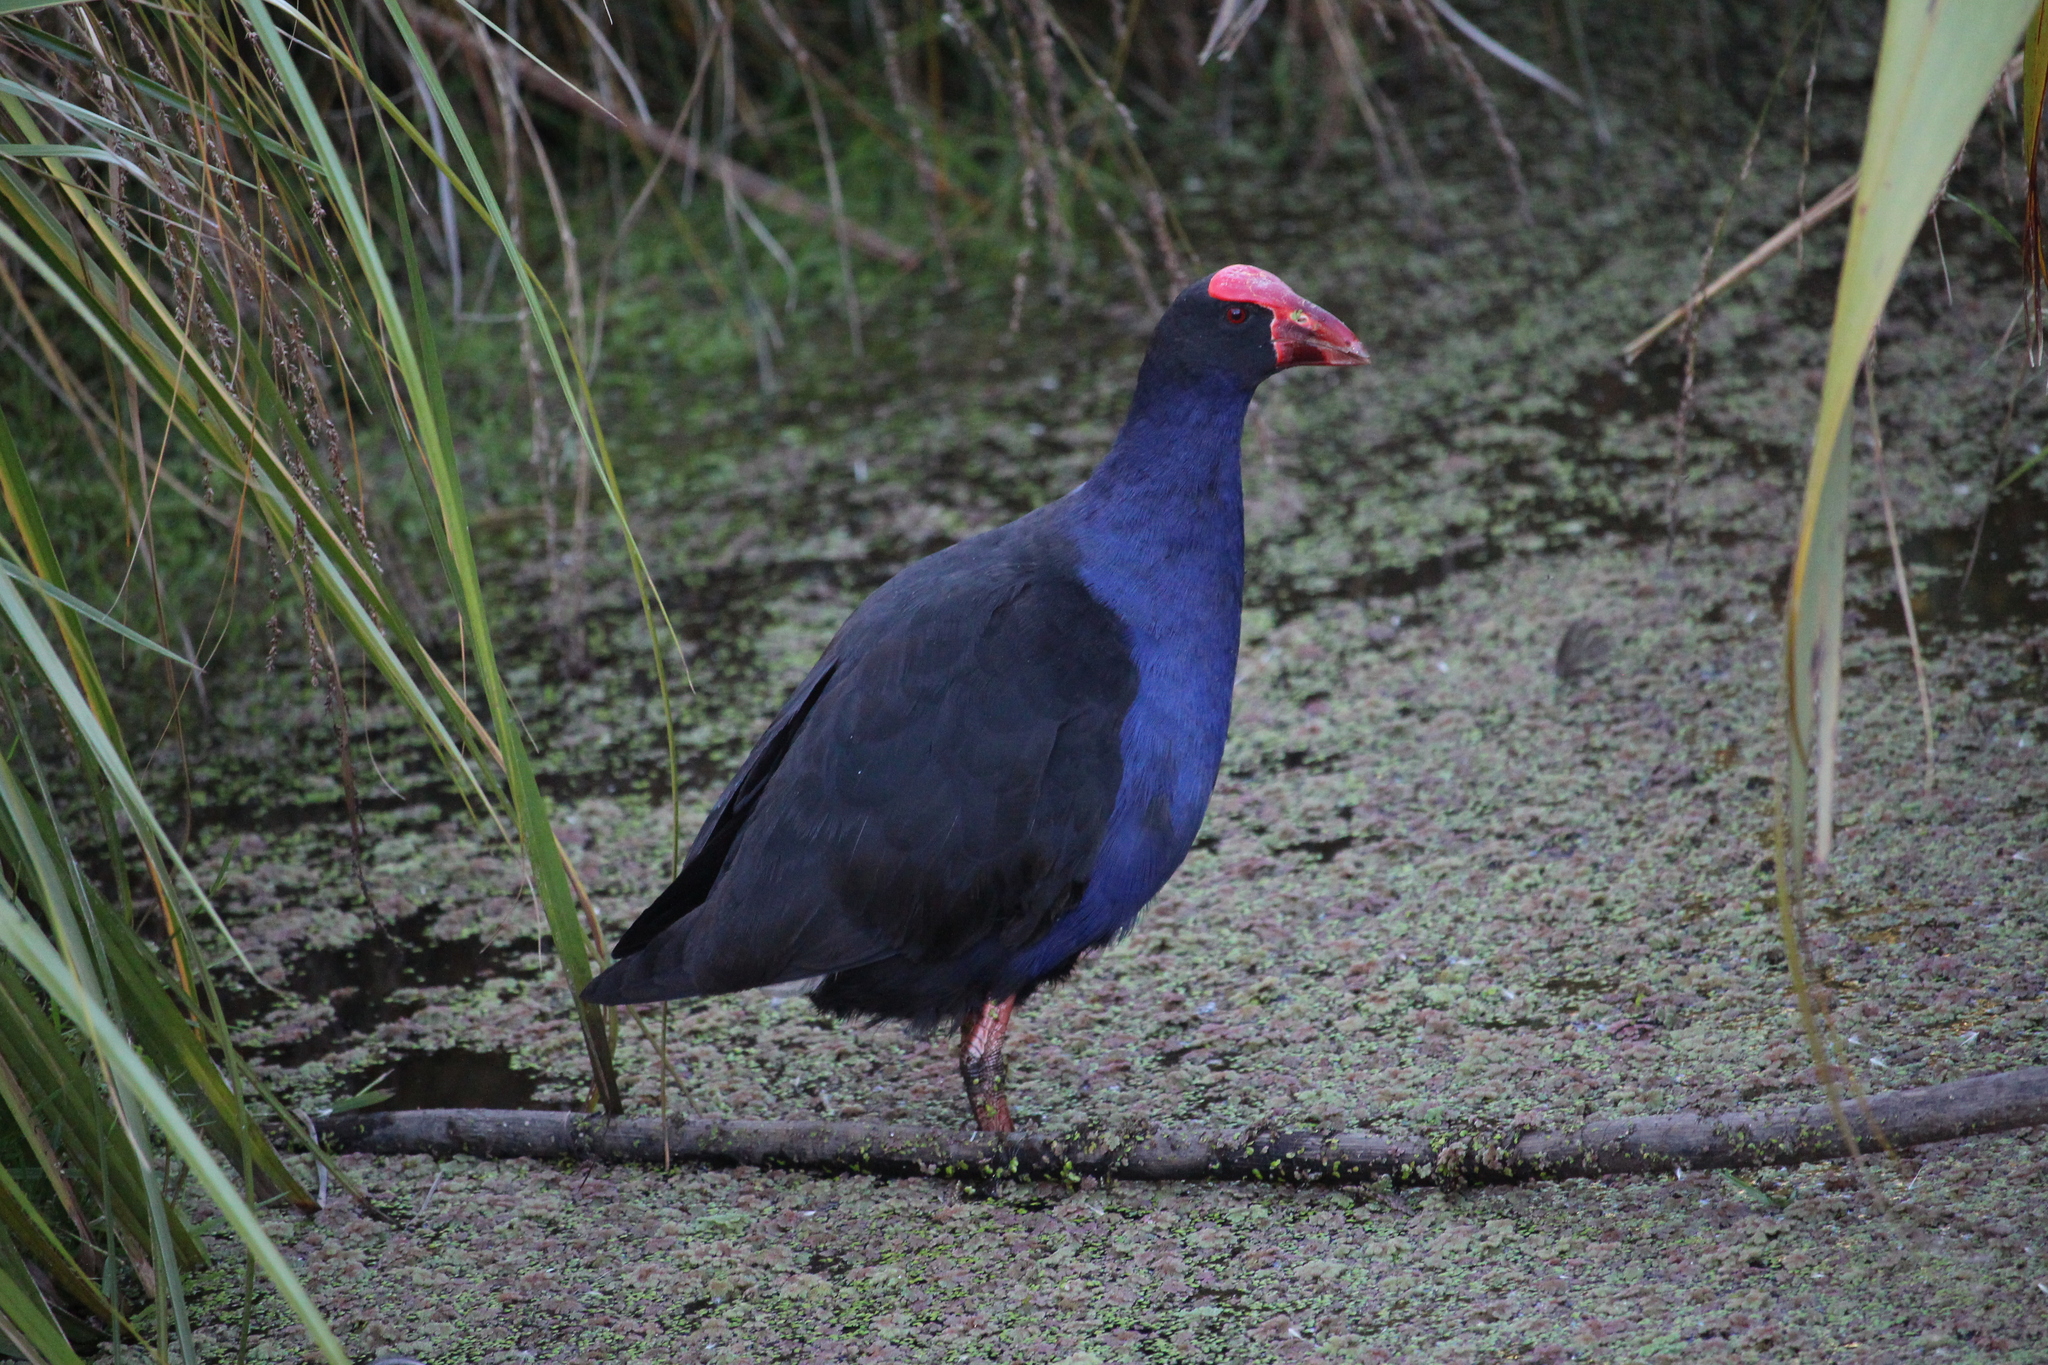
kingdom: Animalia
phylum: Chordata
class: Aves
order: Gruiformes
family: Rallidae
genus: Porphyrio
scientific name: Porphyrio melanotus
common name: Australasian swamphen
